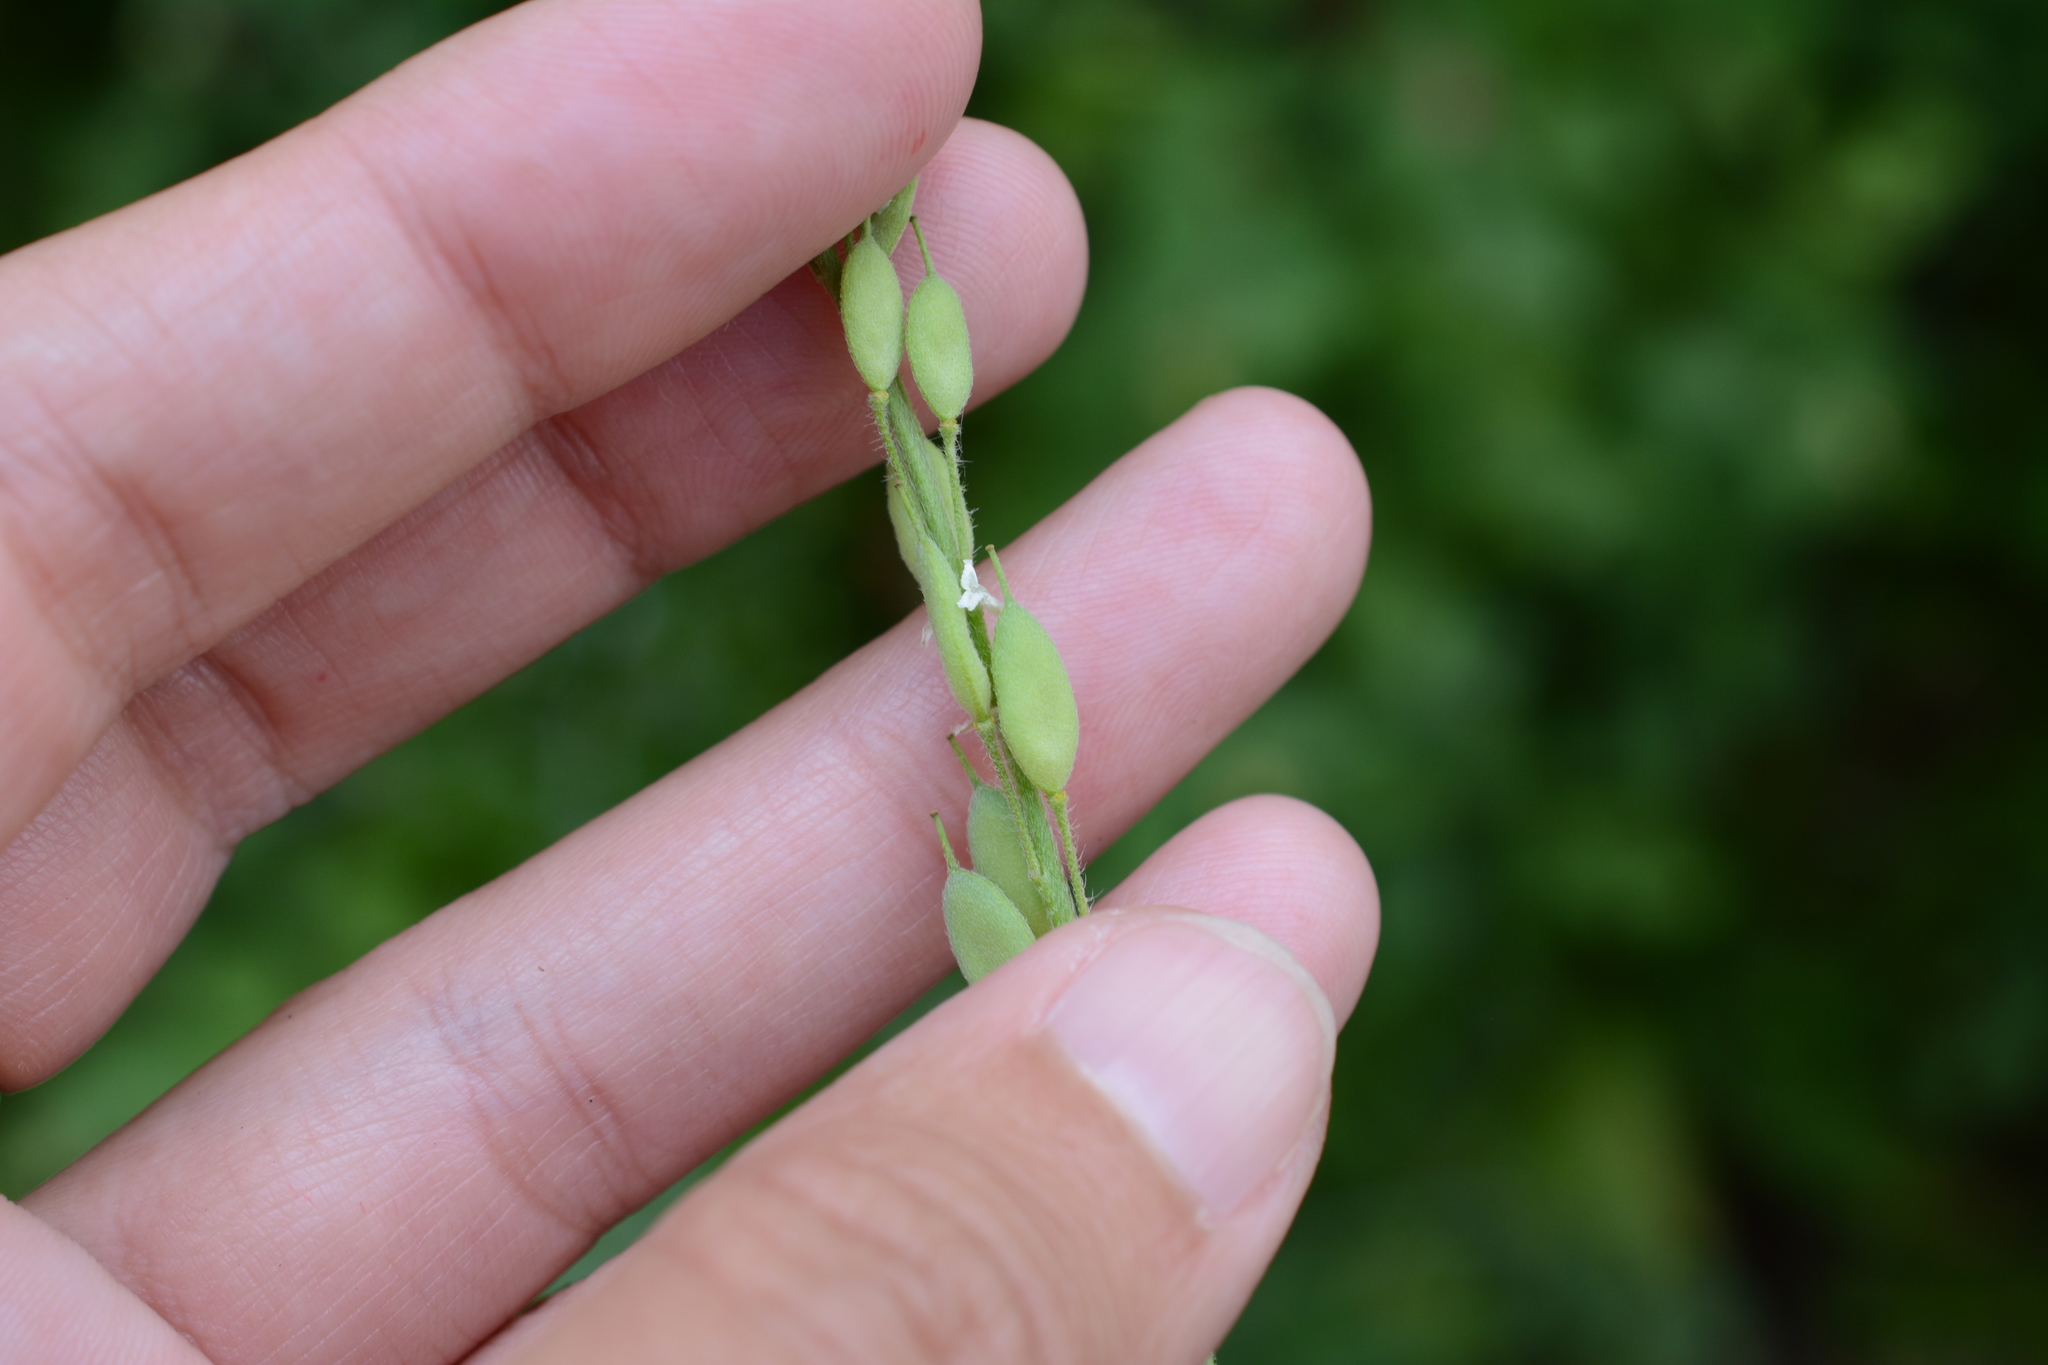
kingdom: Plantae
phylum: Tracheophyta
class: Magnoliopsida
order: Brassicales
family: Brassicaceae
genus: Berteroa
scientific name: Berteroa incana
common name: Hoary alison
